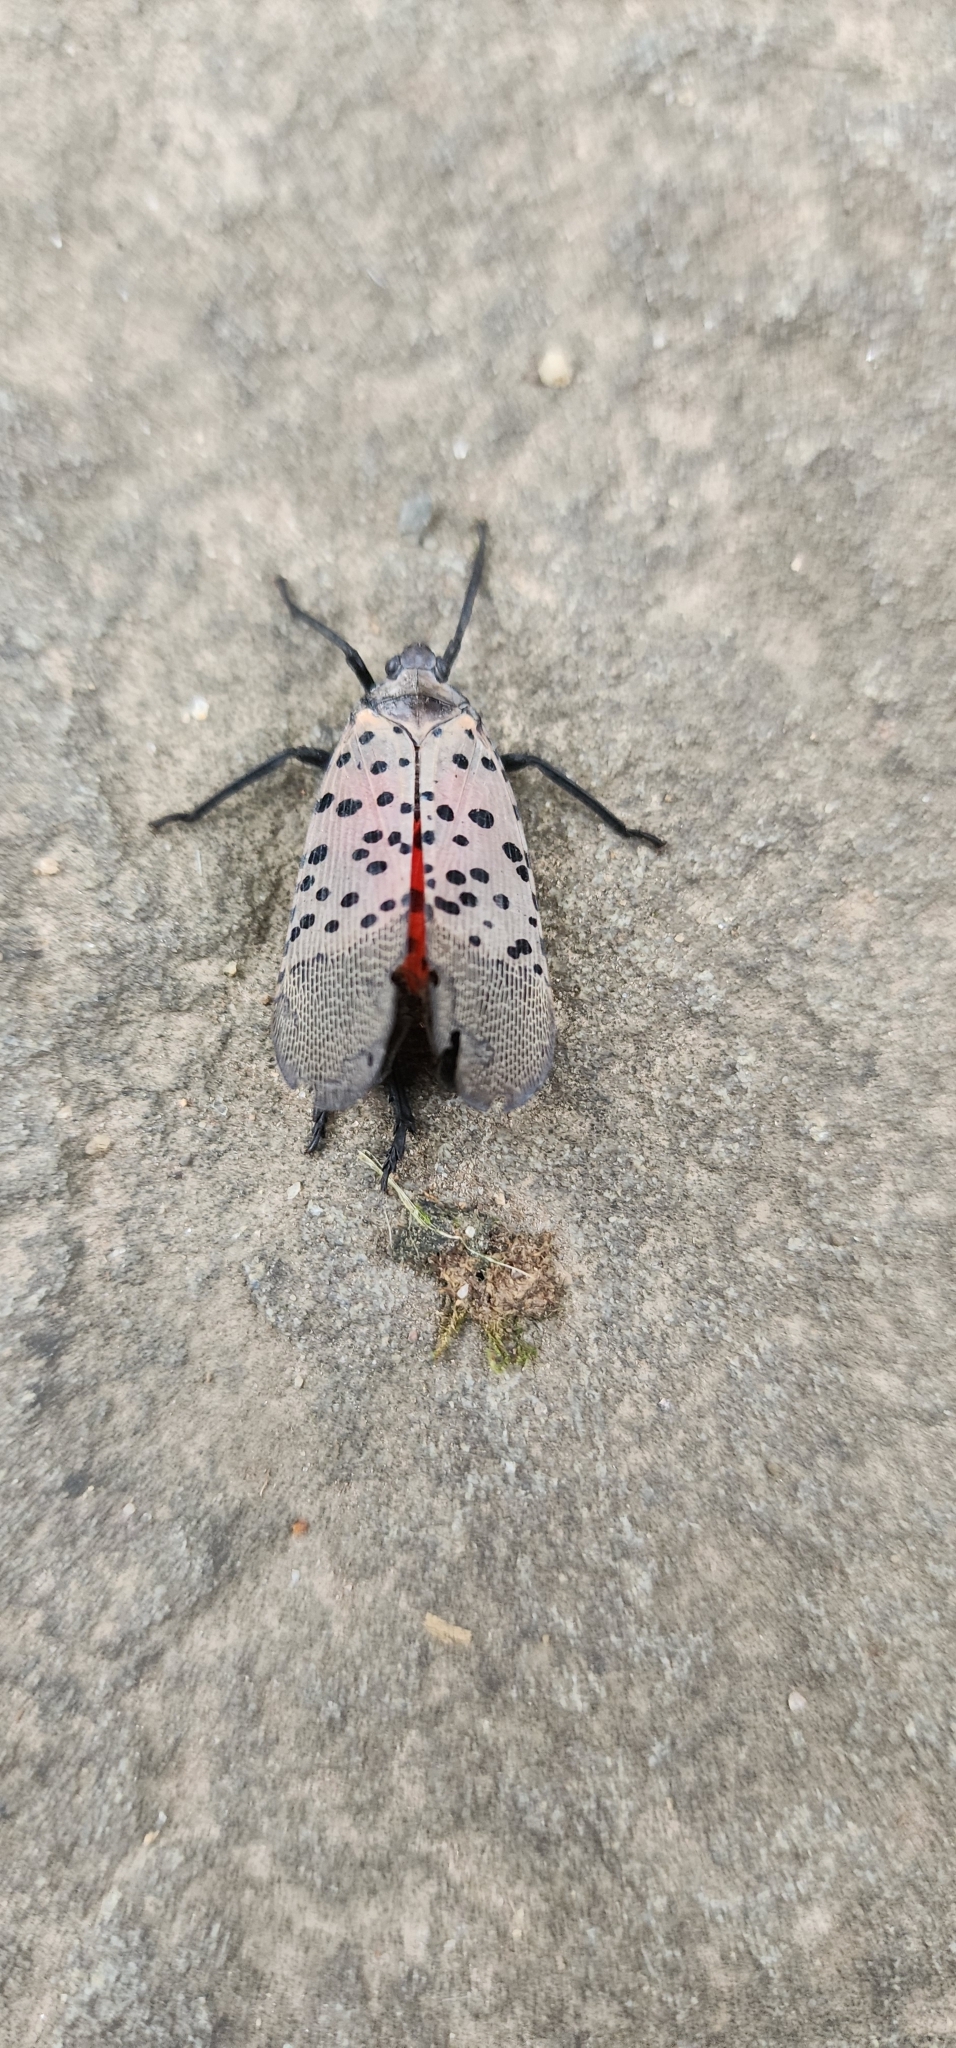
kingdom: Animalia
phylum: Arthropoda
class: Insecta
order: Hemiptera
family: Fulgoridae
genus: Lycorma
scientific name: Lycorma delicatula
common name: Spotted lanternfly
